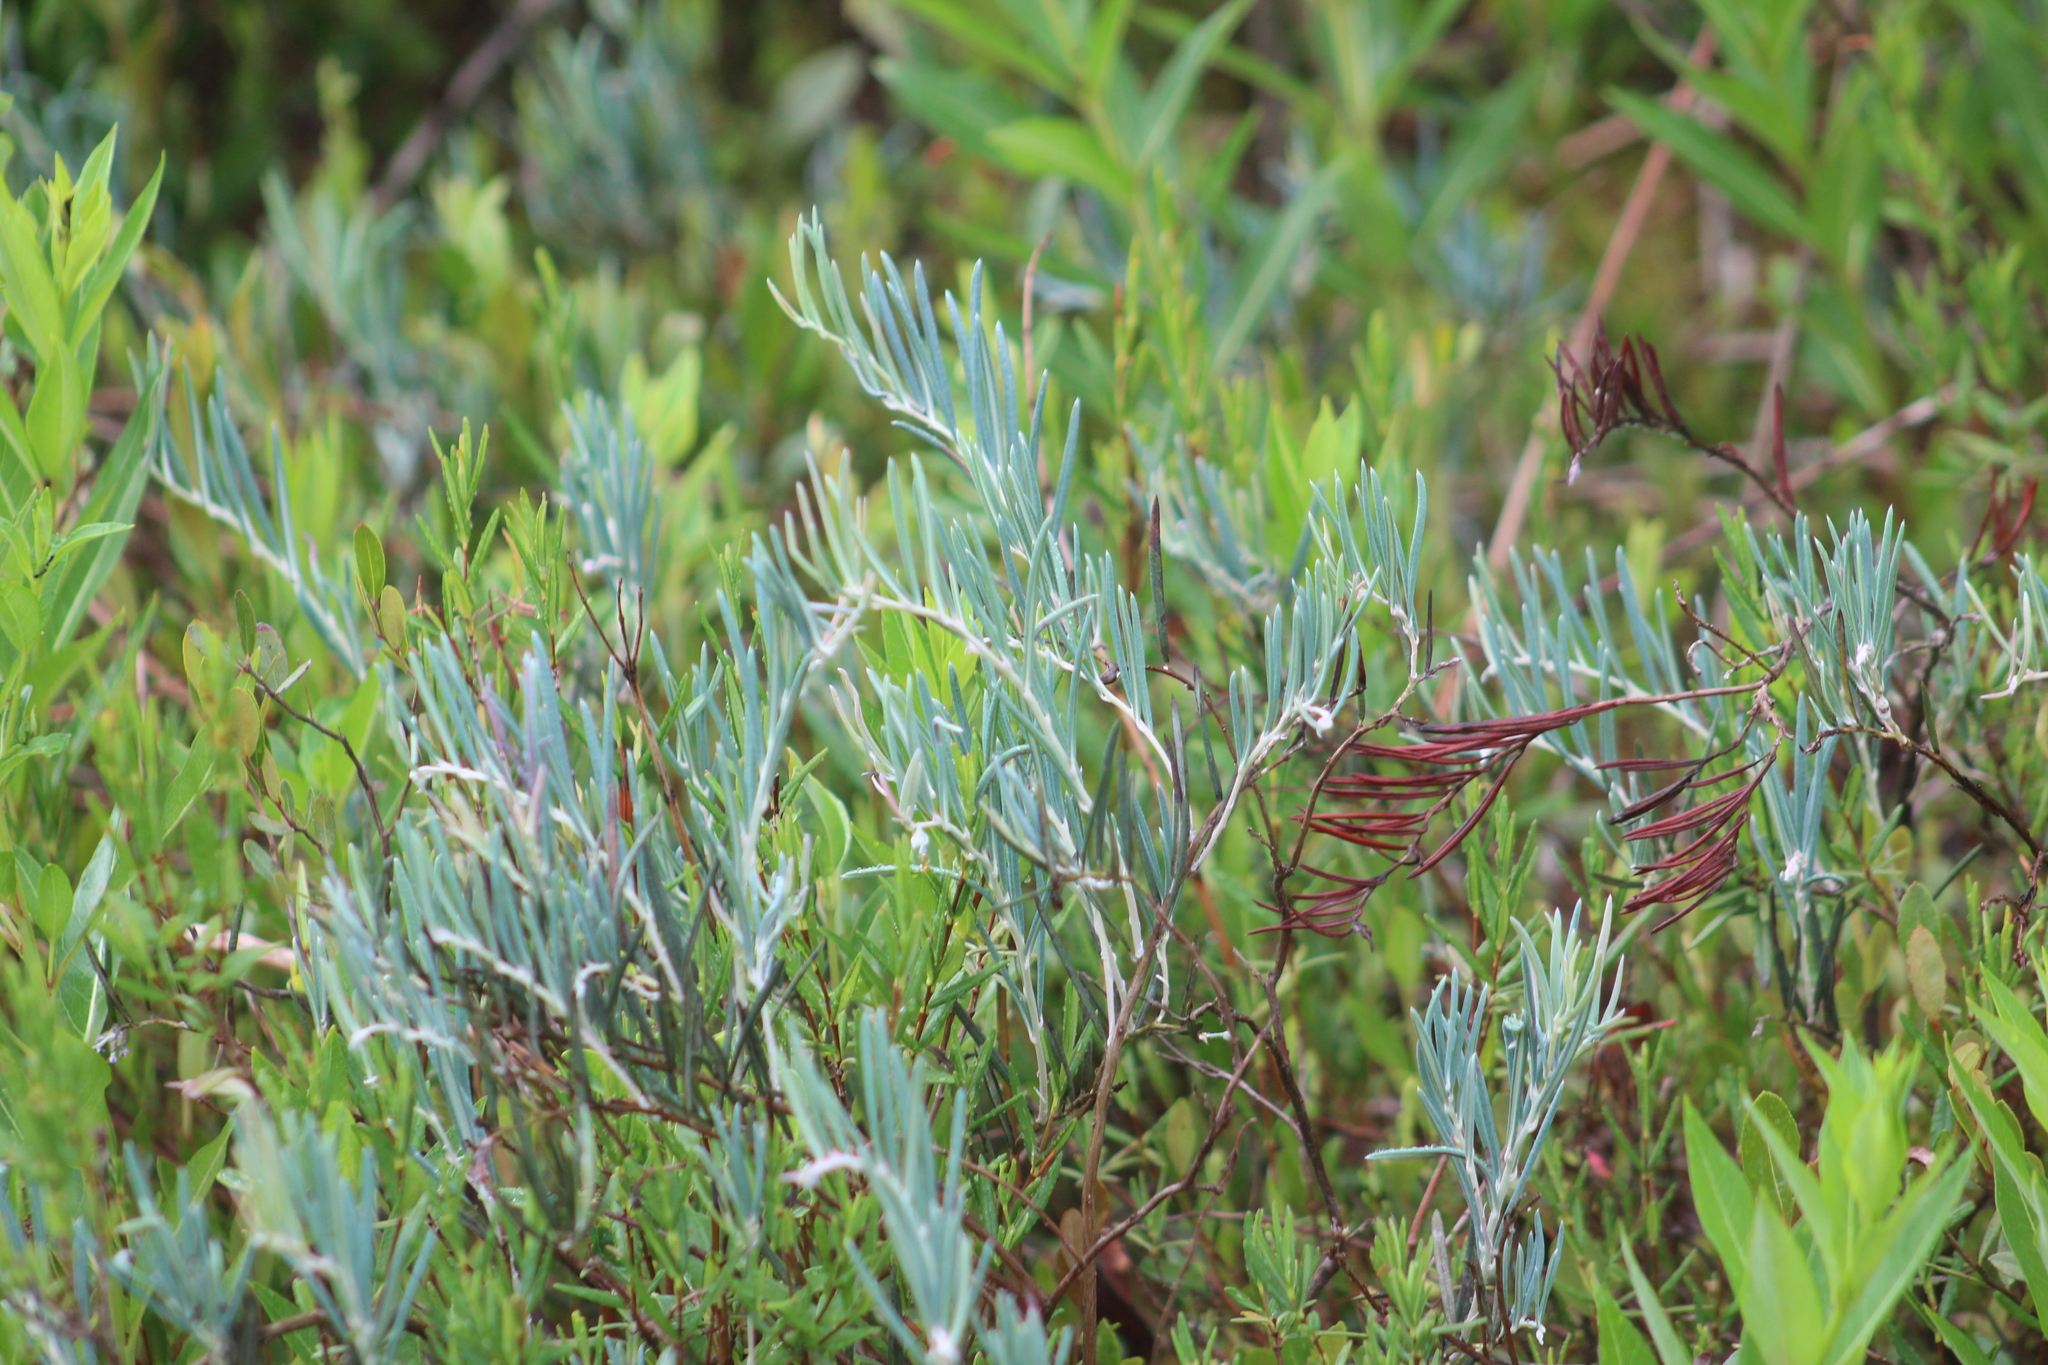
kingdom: Plantae
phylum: Tracheophyta
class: Magnoliopsida
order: Ericales
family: Ericaceae
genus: Andromeda
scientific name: Andromeda polifolia
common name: Bog-rosemary
